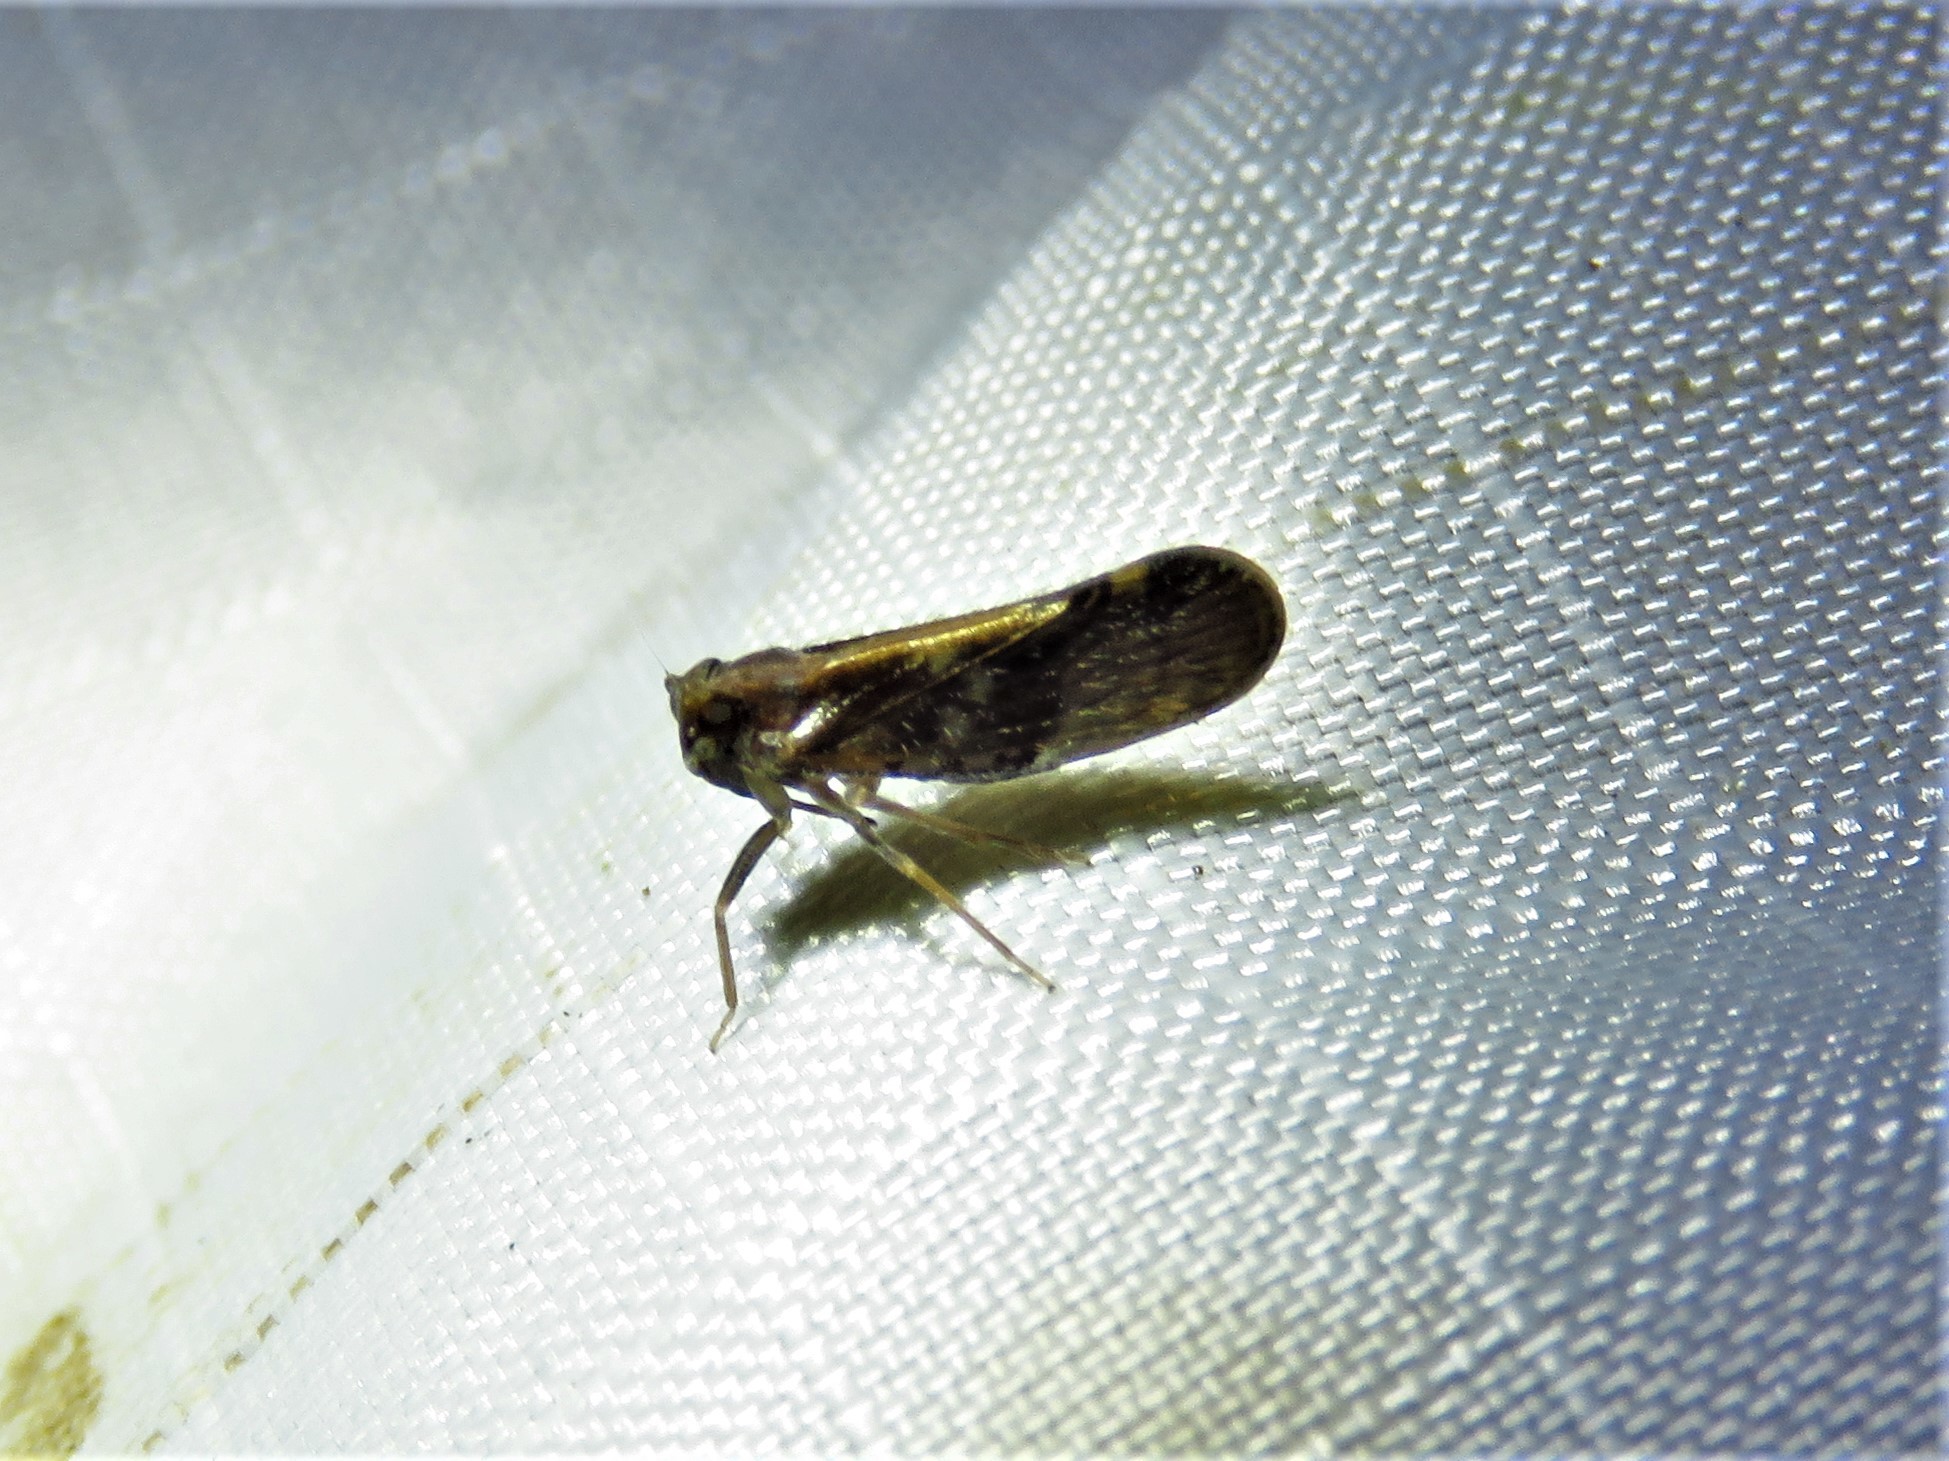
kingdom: Animalia
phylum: Arthropoda
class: Insecta
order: Hemiptera
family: Cixiidae
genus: Pintalia
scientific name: Pintalia vibex
